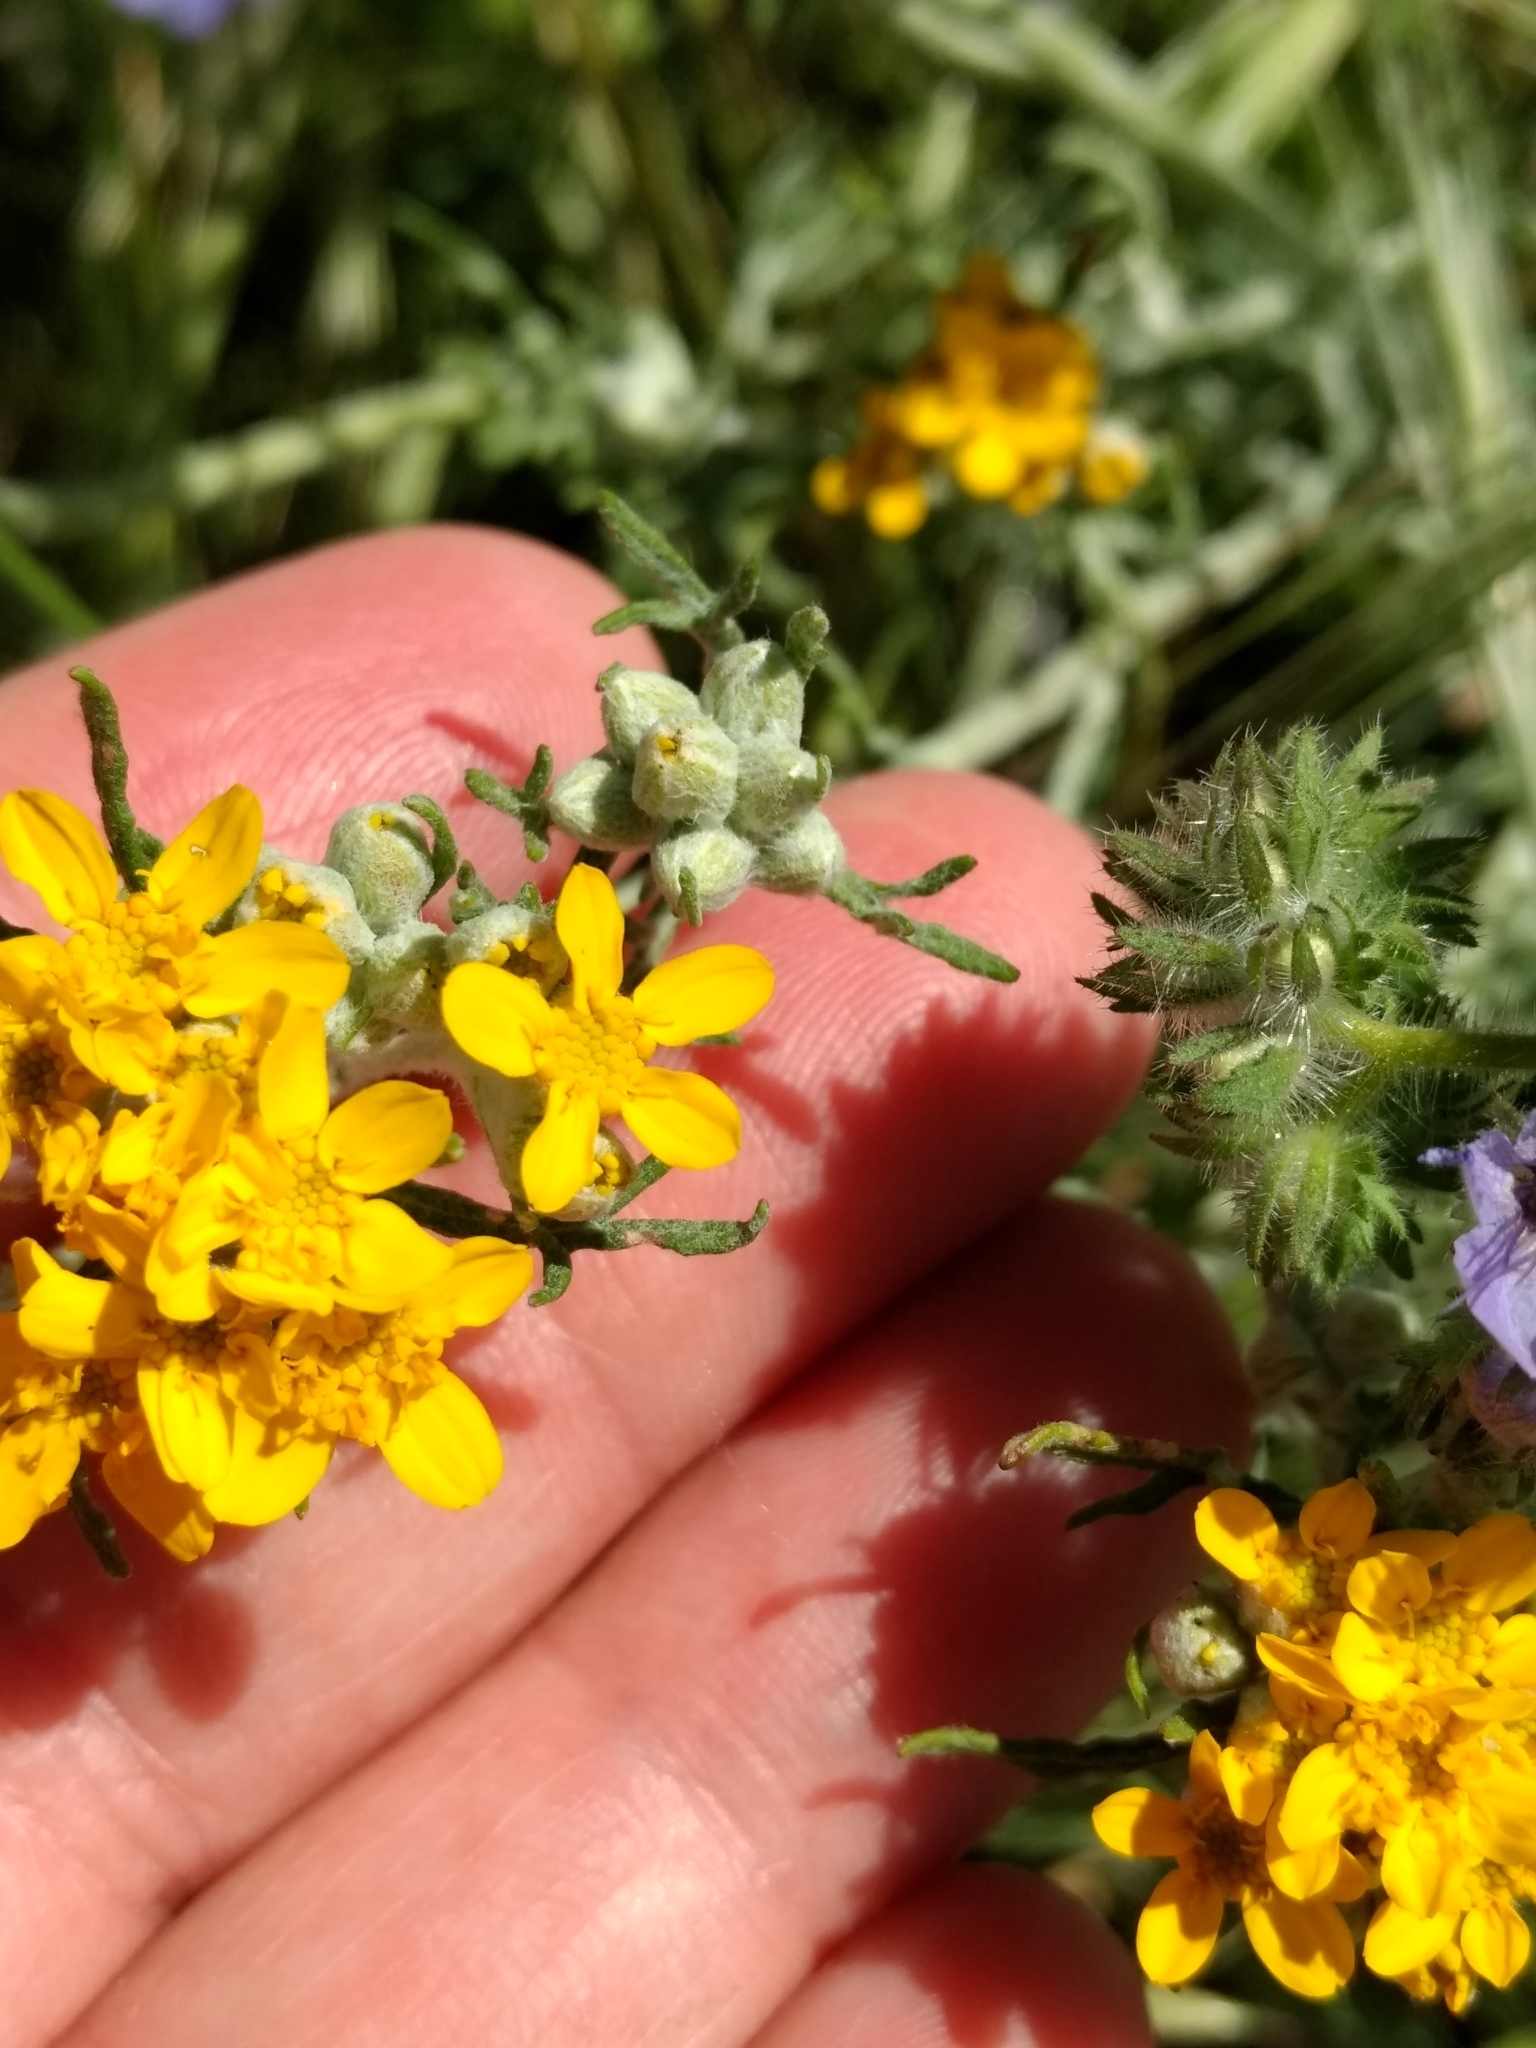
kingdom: Plantae
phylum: Tracheophyta
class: Magnoliopsida
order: Asterales
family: Asteraceae
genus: Eriophyllum
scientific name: Eriophyllum confertiflorum
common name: Golden-yarrow
